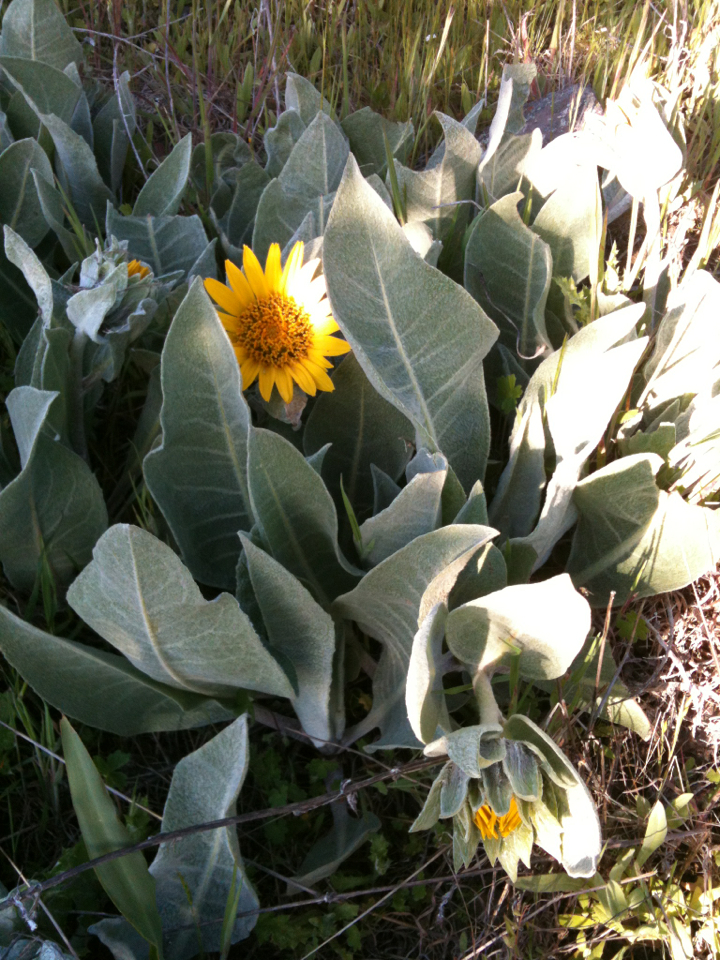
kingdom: Plantae
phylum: Tracheophyta
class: Magnoliopsida
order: Asterales
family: Asteraceae
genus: Wyethia
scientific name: Wyethia helenioides
